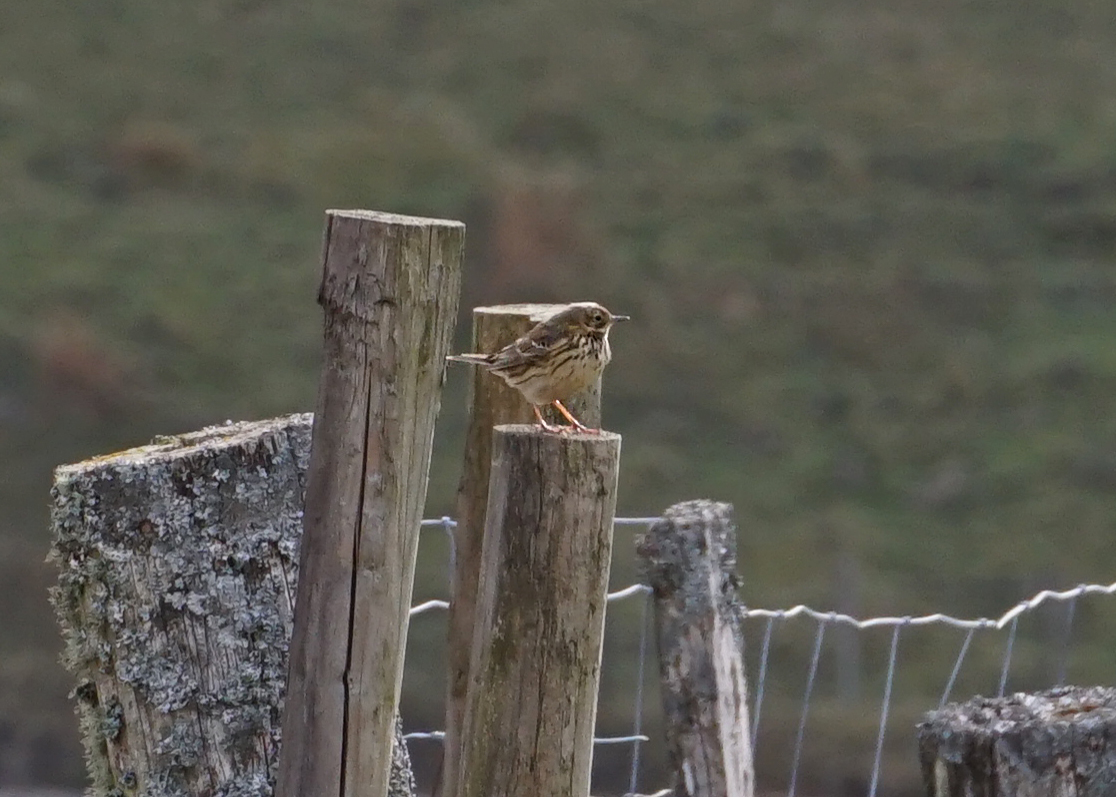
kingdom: Animalia
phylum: Chordata
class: Aves
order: Passeriformes
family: Motacillidae
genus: Anthus
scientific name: Anthus pratensis
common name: Meadow pipit
